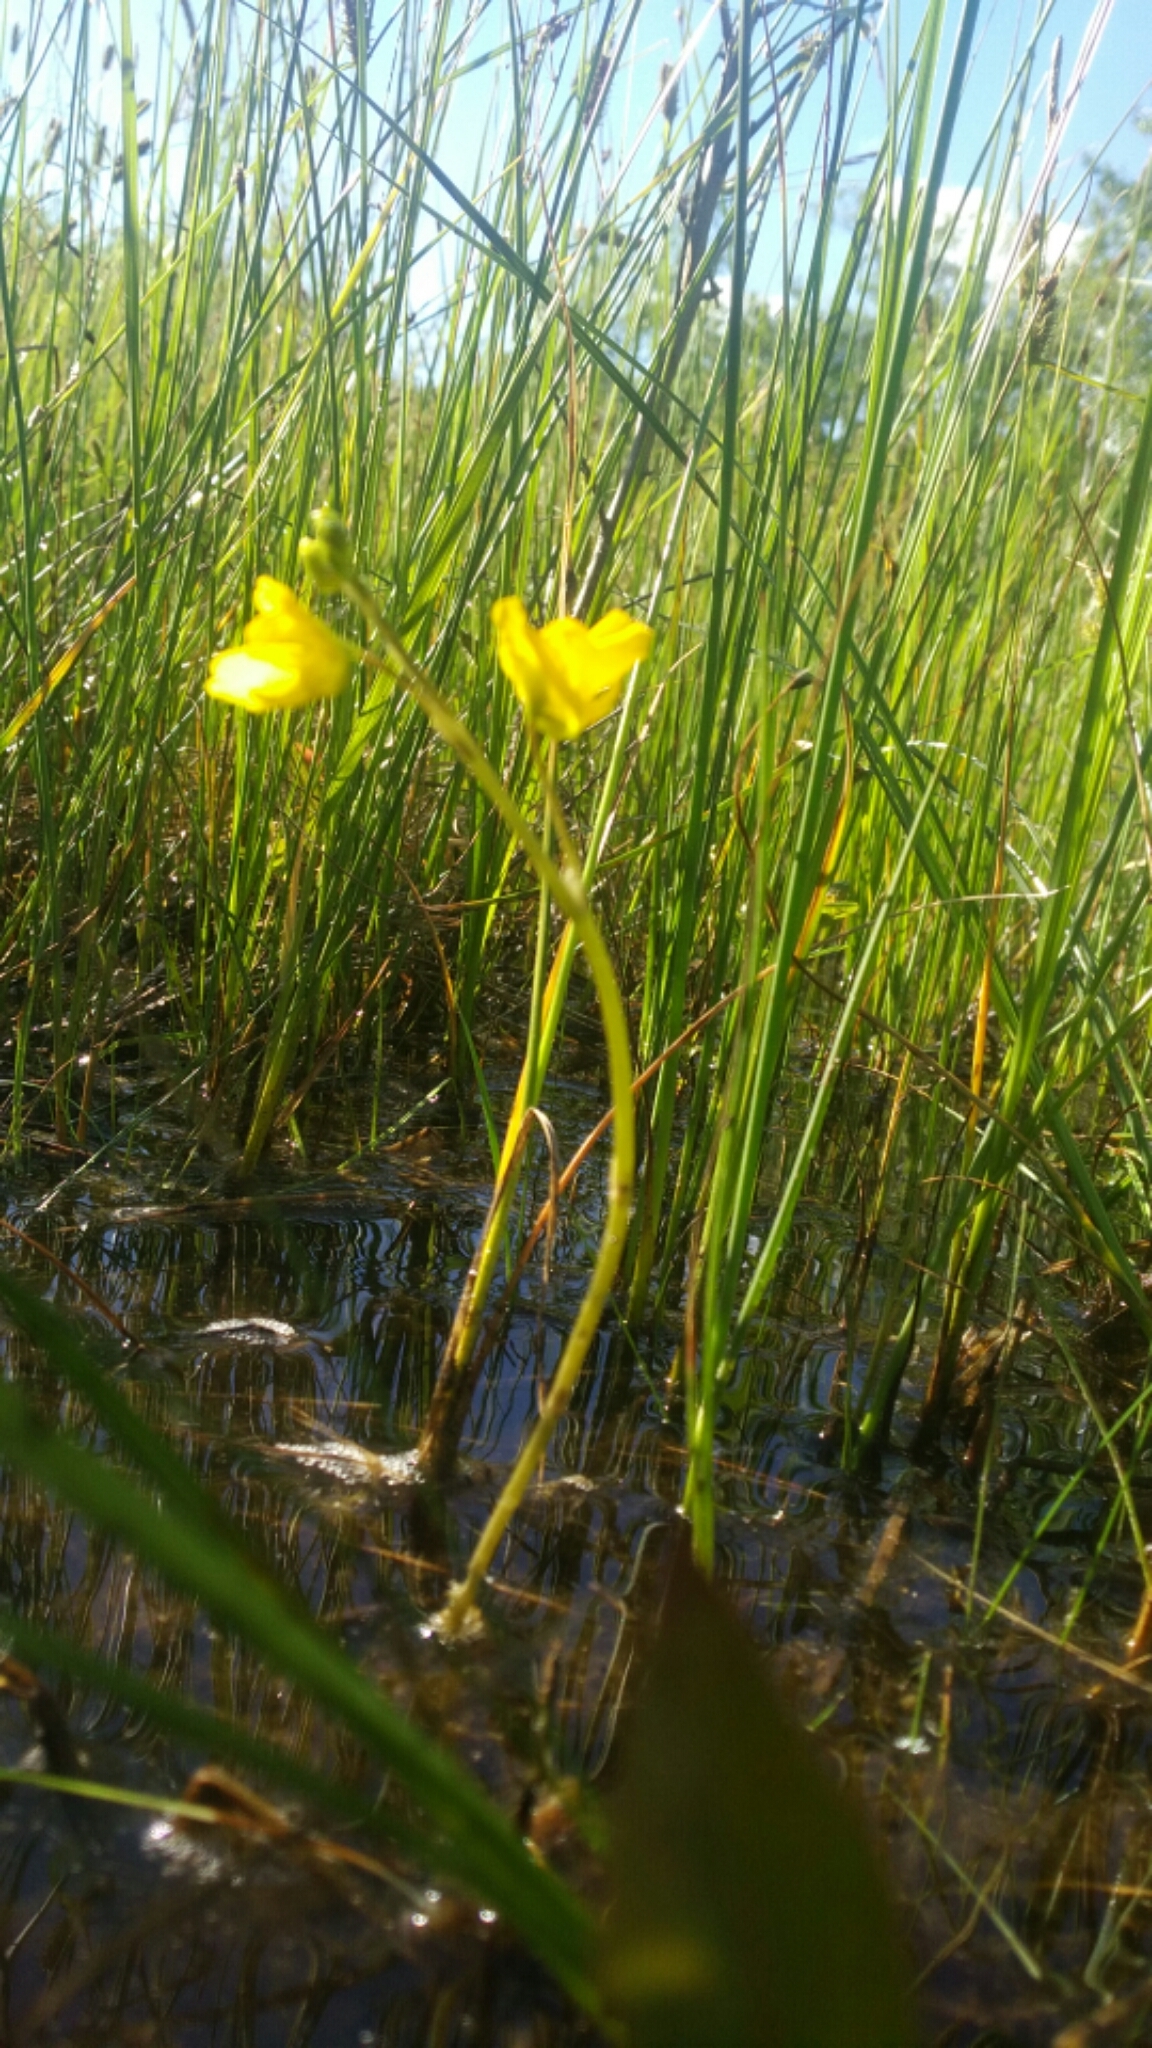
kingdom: Plantae
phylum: Tracheophyta
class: Magnoliopsida
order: Lamiales
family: Lentibulariaceae
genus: Utricularia
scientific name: Utricularia macrorhiza
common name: Common bladderwort
